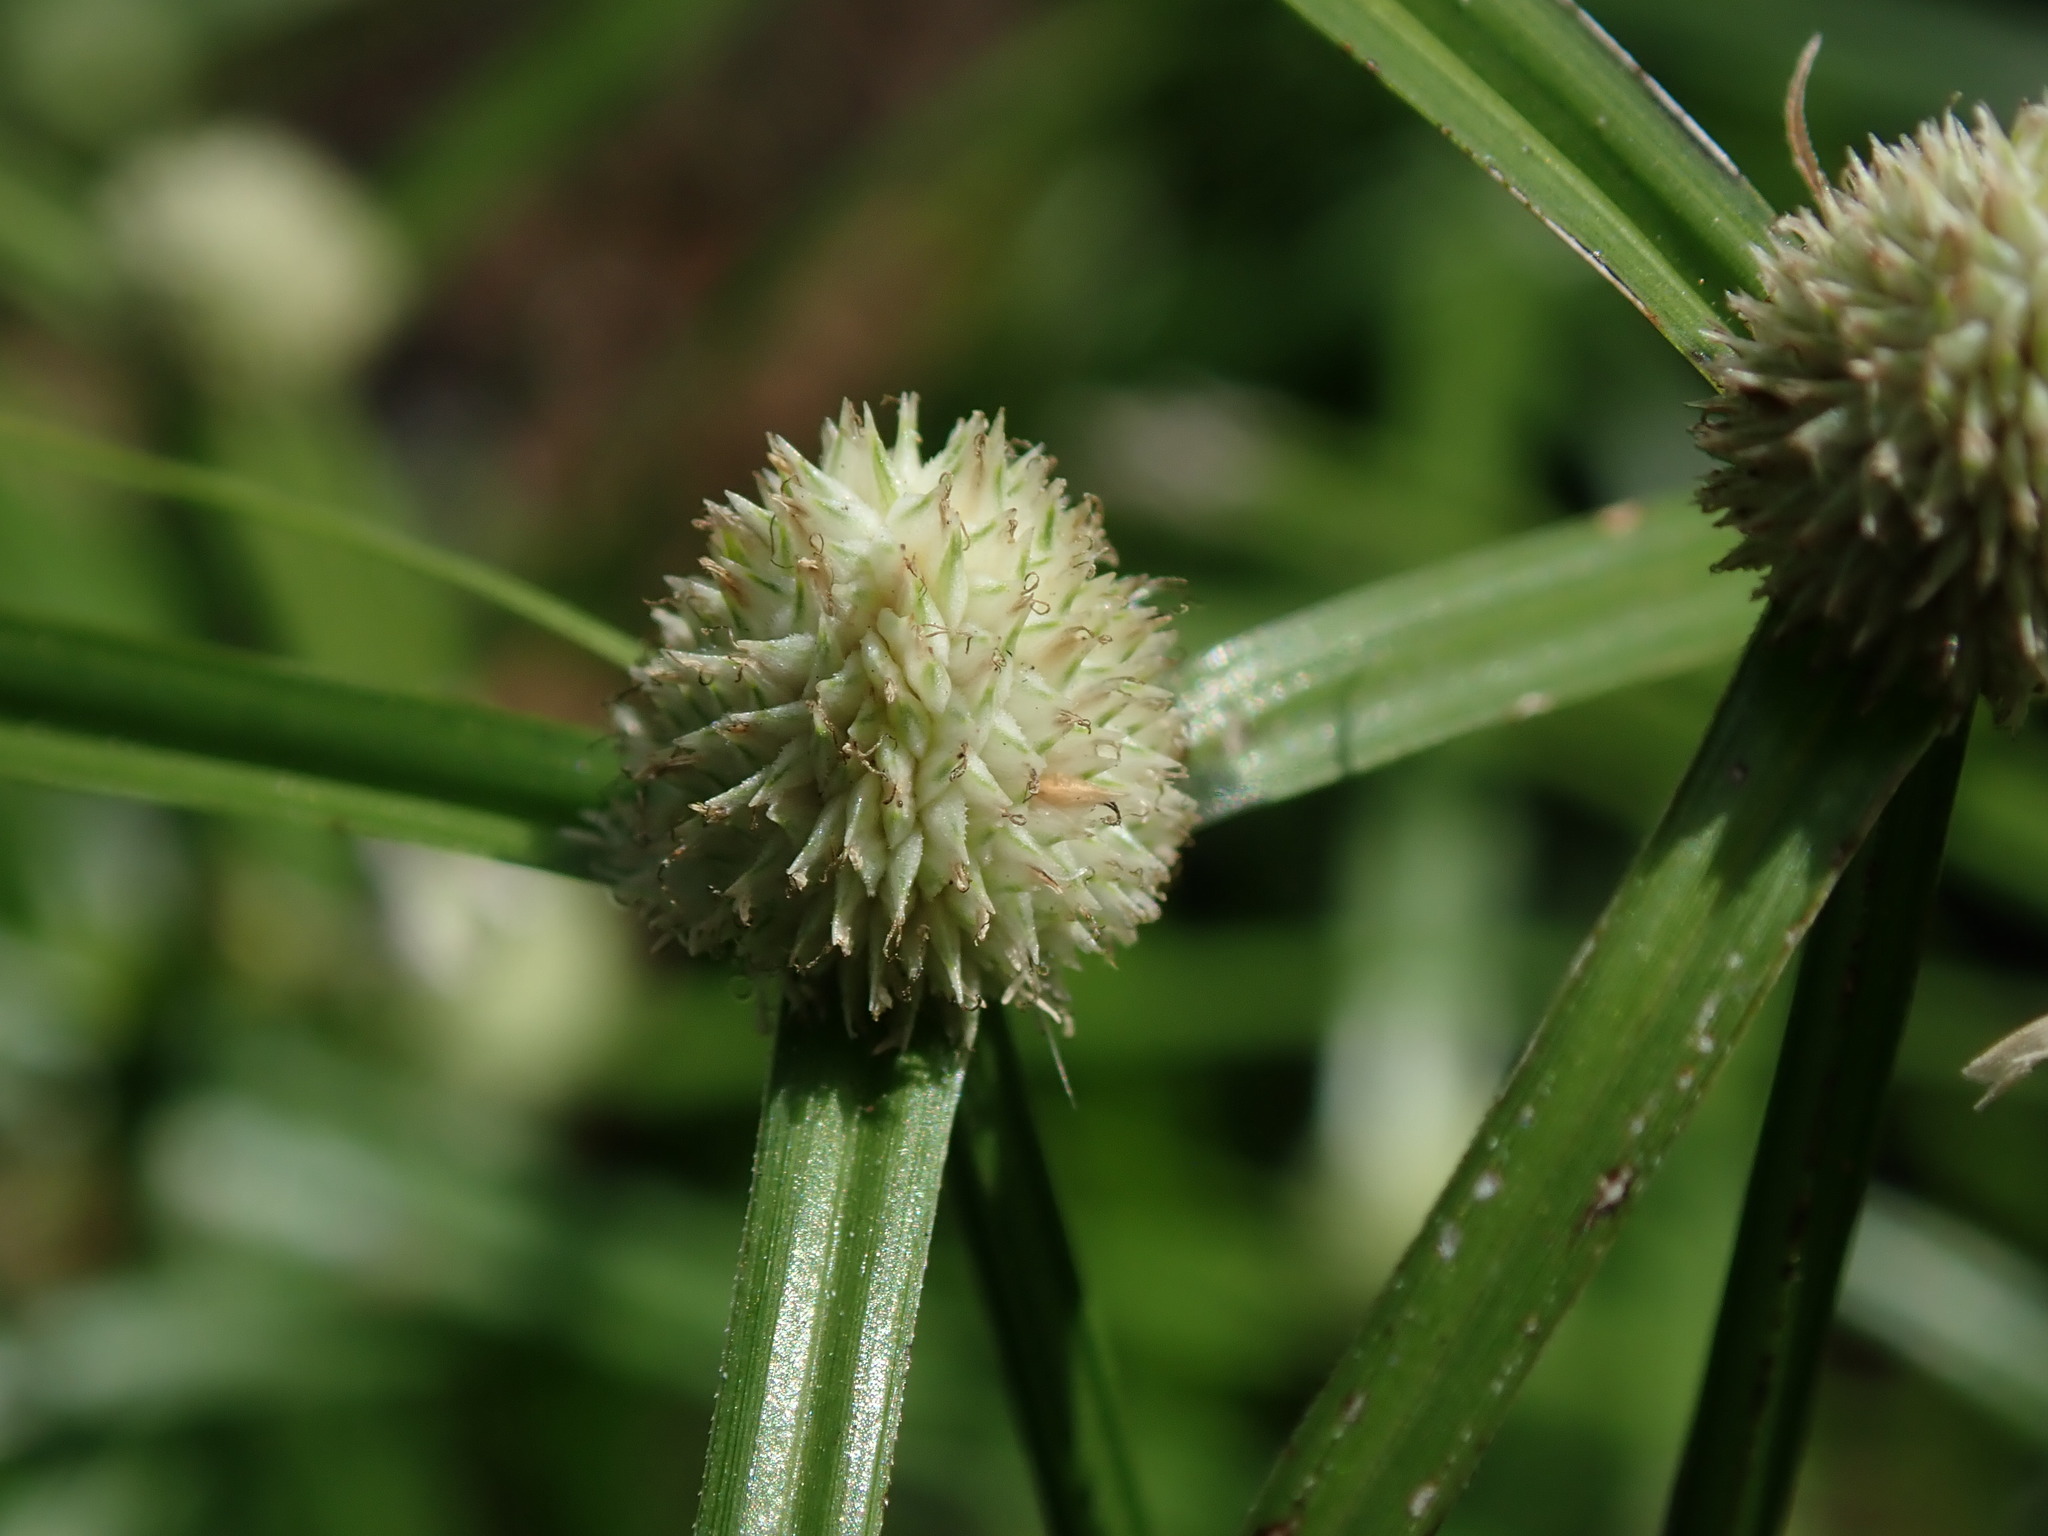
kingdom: Plantae
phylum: Tracheophyta
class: Liliopsida
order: Poales
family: Cyperaceae
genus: Cyperus
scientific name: Cyperus mindorensis
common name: Flatsedge
